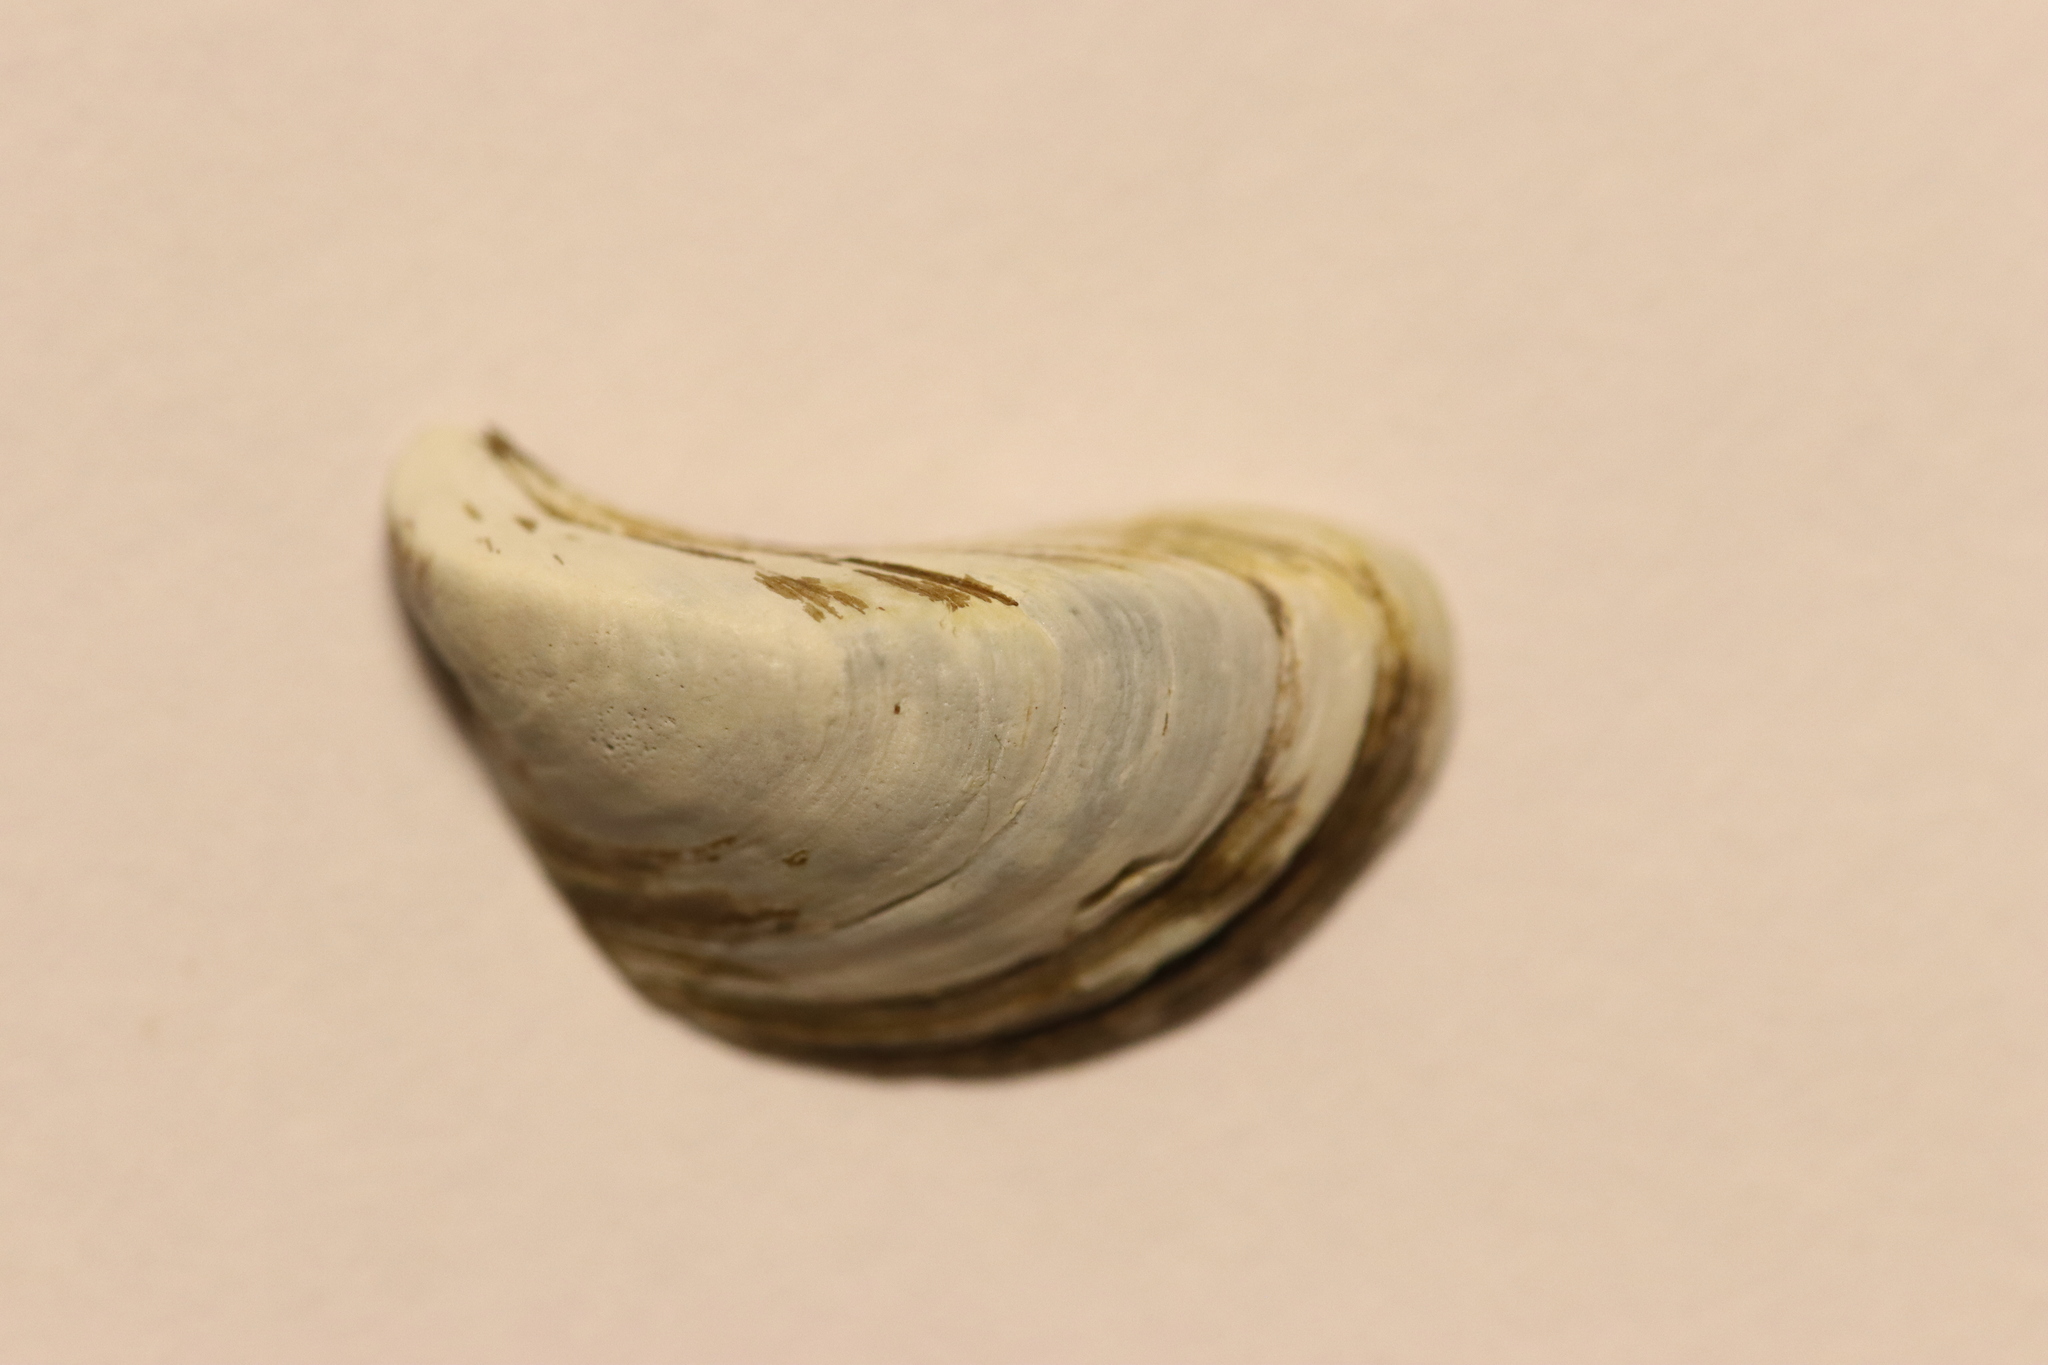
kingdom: Animalia
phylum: Mollusca
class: Bivalvia
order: Myida
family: Dreissenidae
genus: Dreissena
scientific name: Dreissena polymorpha
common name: Zebra mussel
